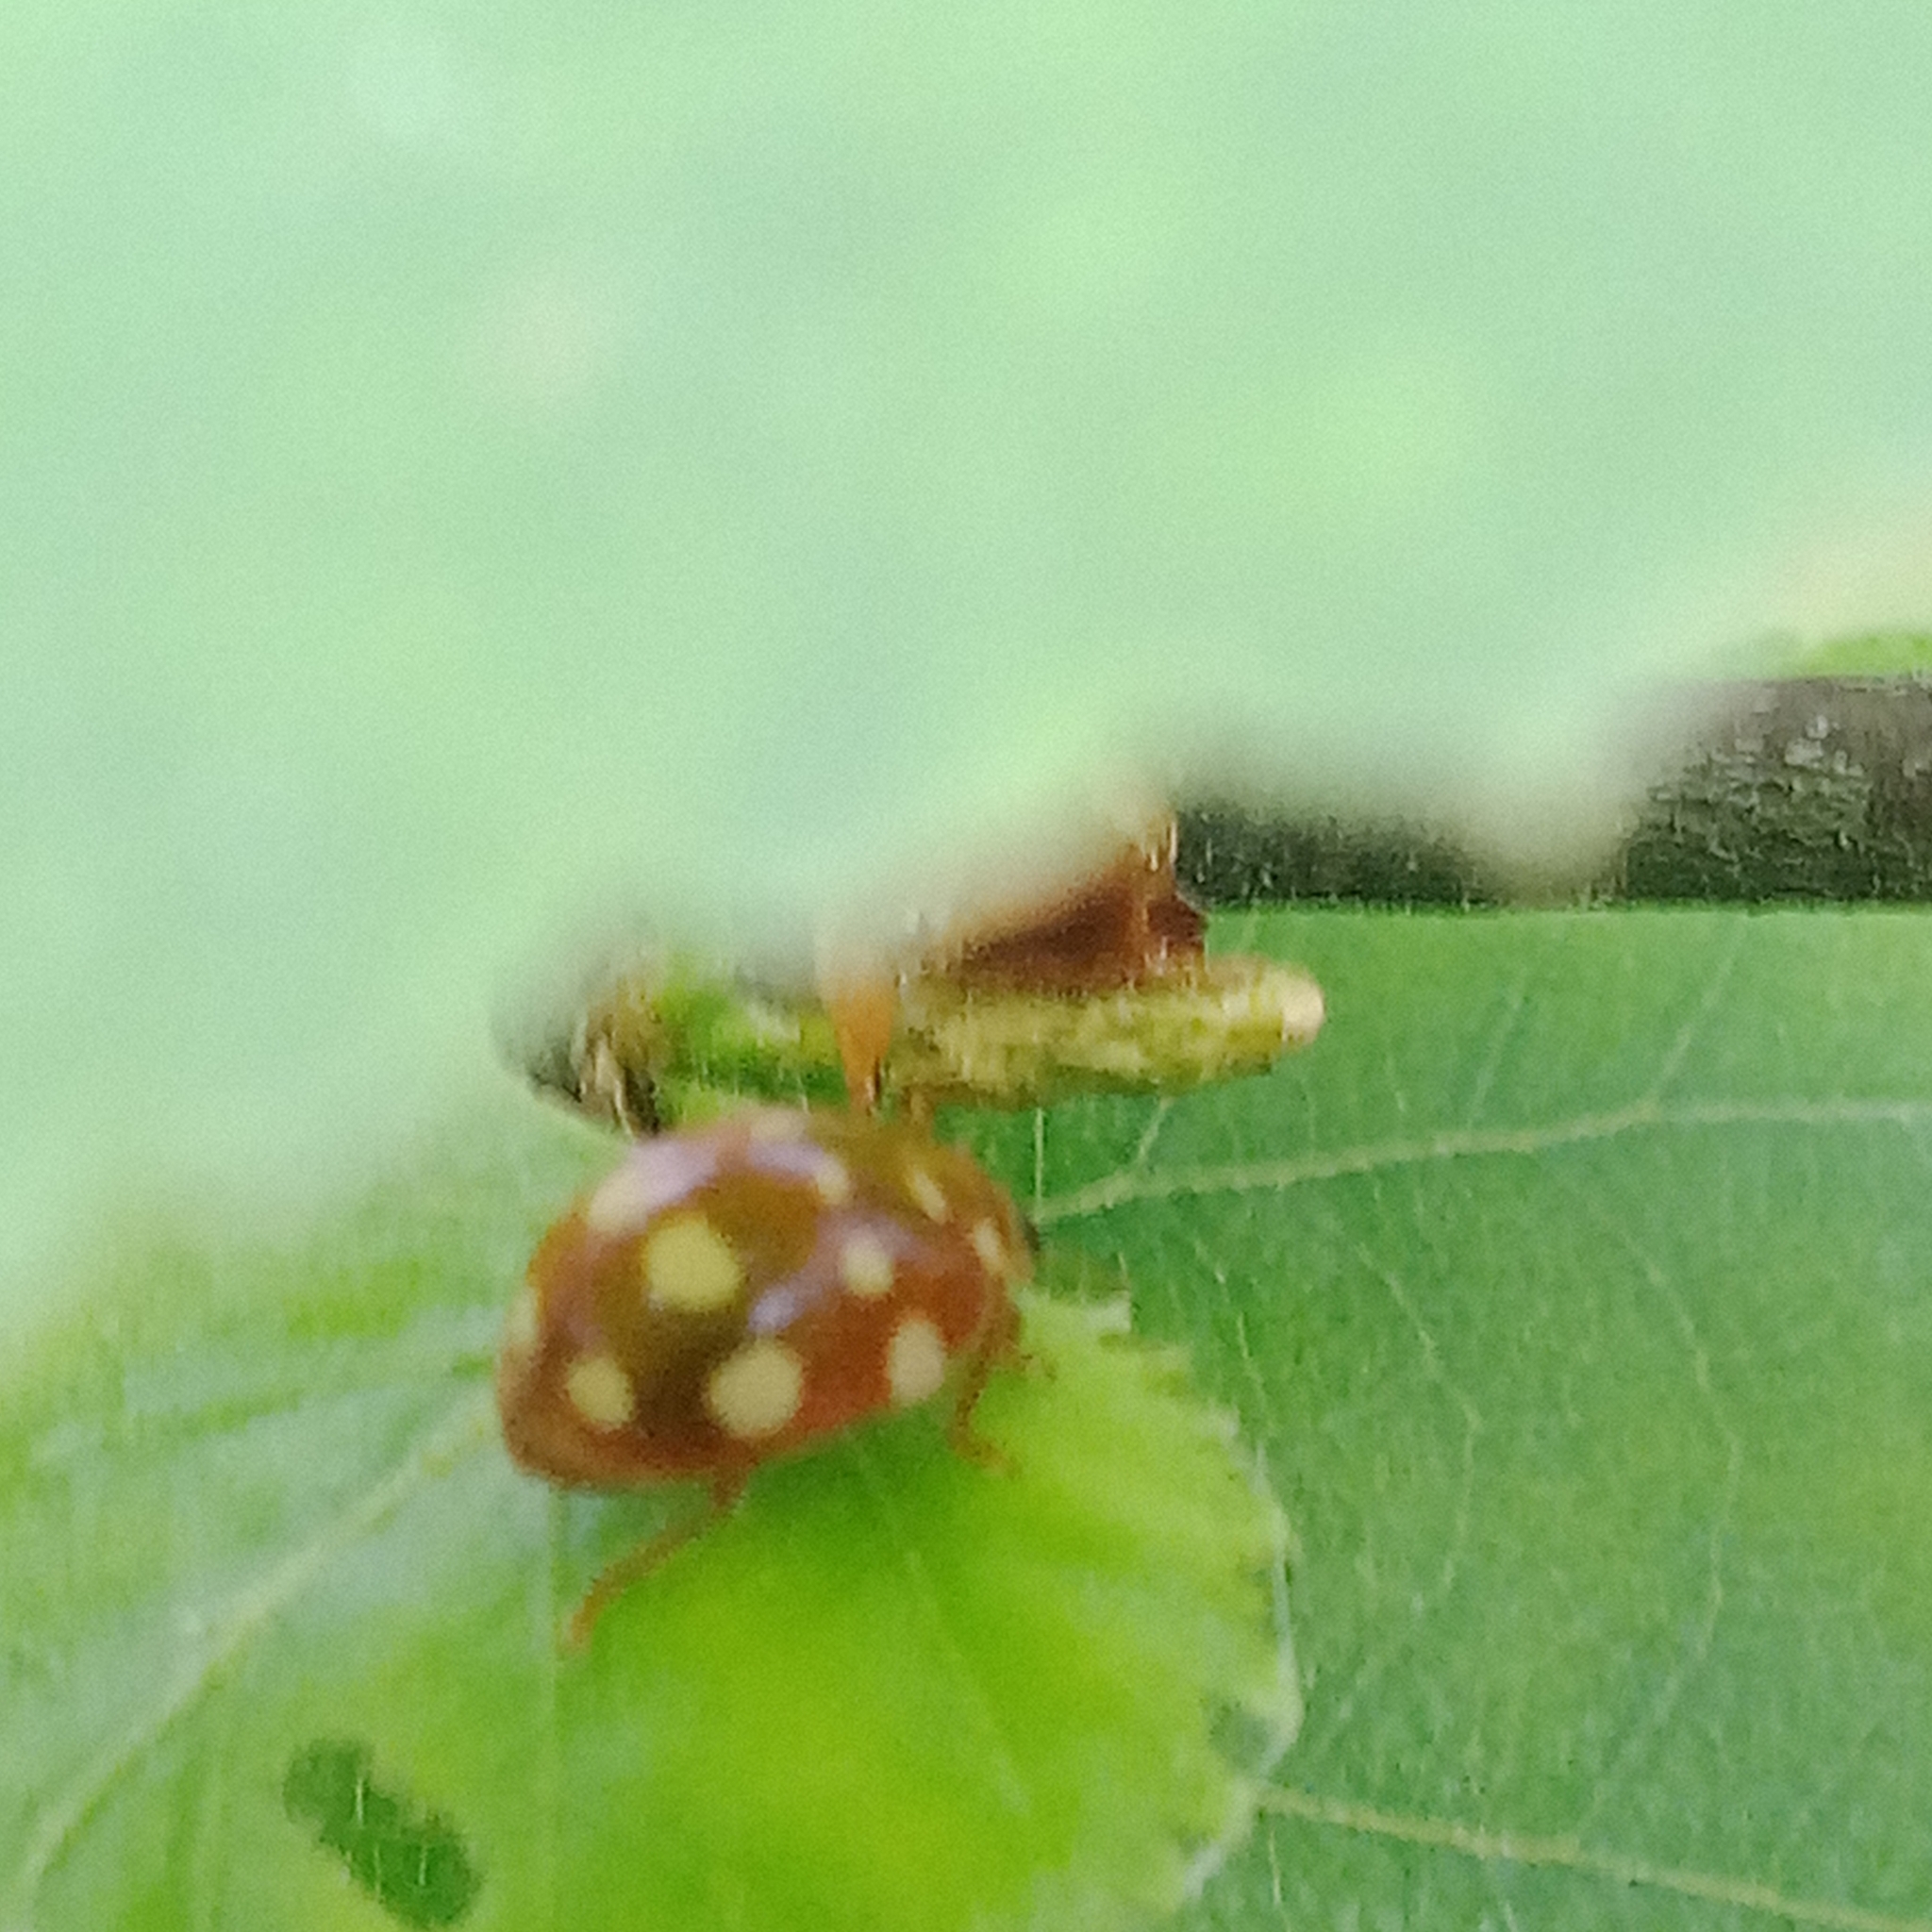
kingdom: Animalia
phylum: Arthropoda
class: Insecta
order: Coleoptera
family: Coccinellidae
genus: Calvia
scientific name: Calvia quatuordecimguttata
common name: Cream-spot ladybird
